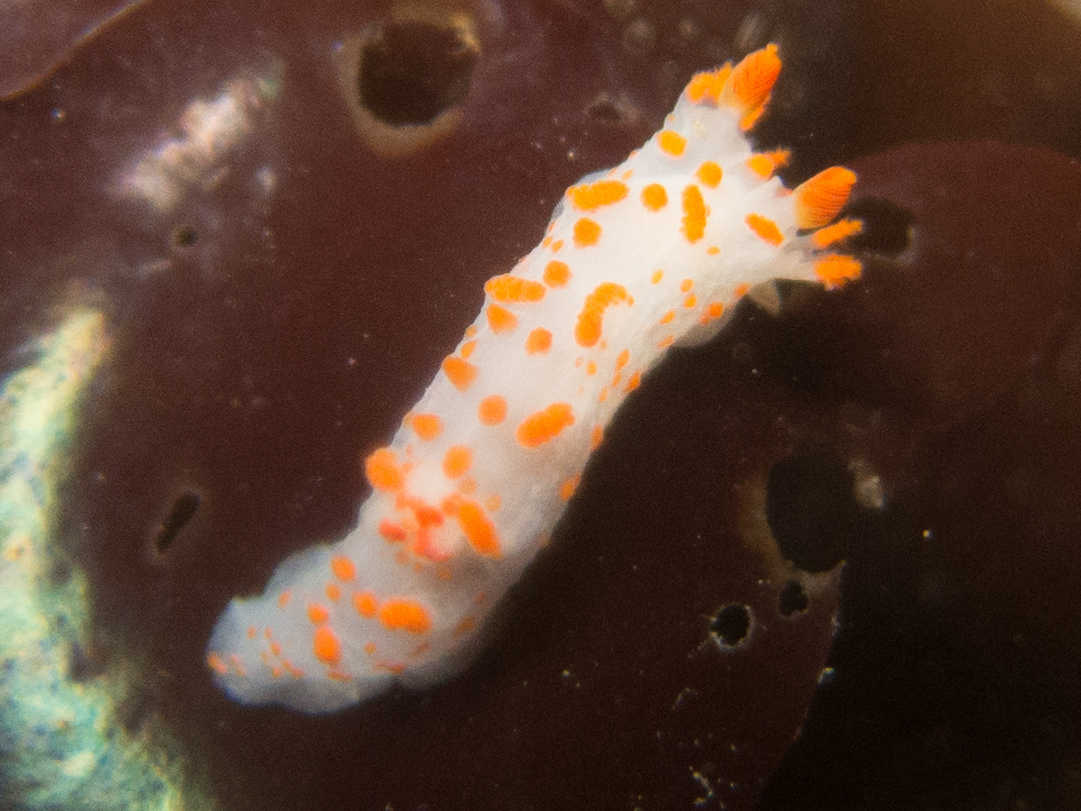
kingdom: Animalia
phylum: Mollusca
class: Gastropoda
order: Nudibranchia
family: Polyceridae
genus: Triopha
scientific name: Triopha catalinae
